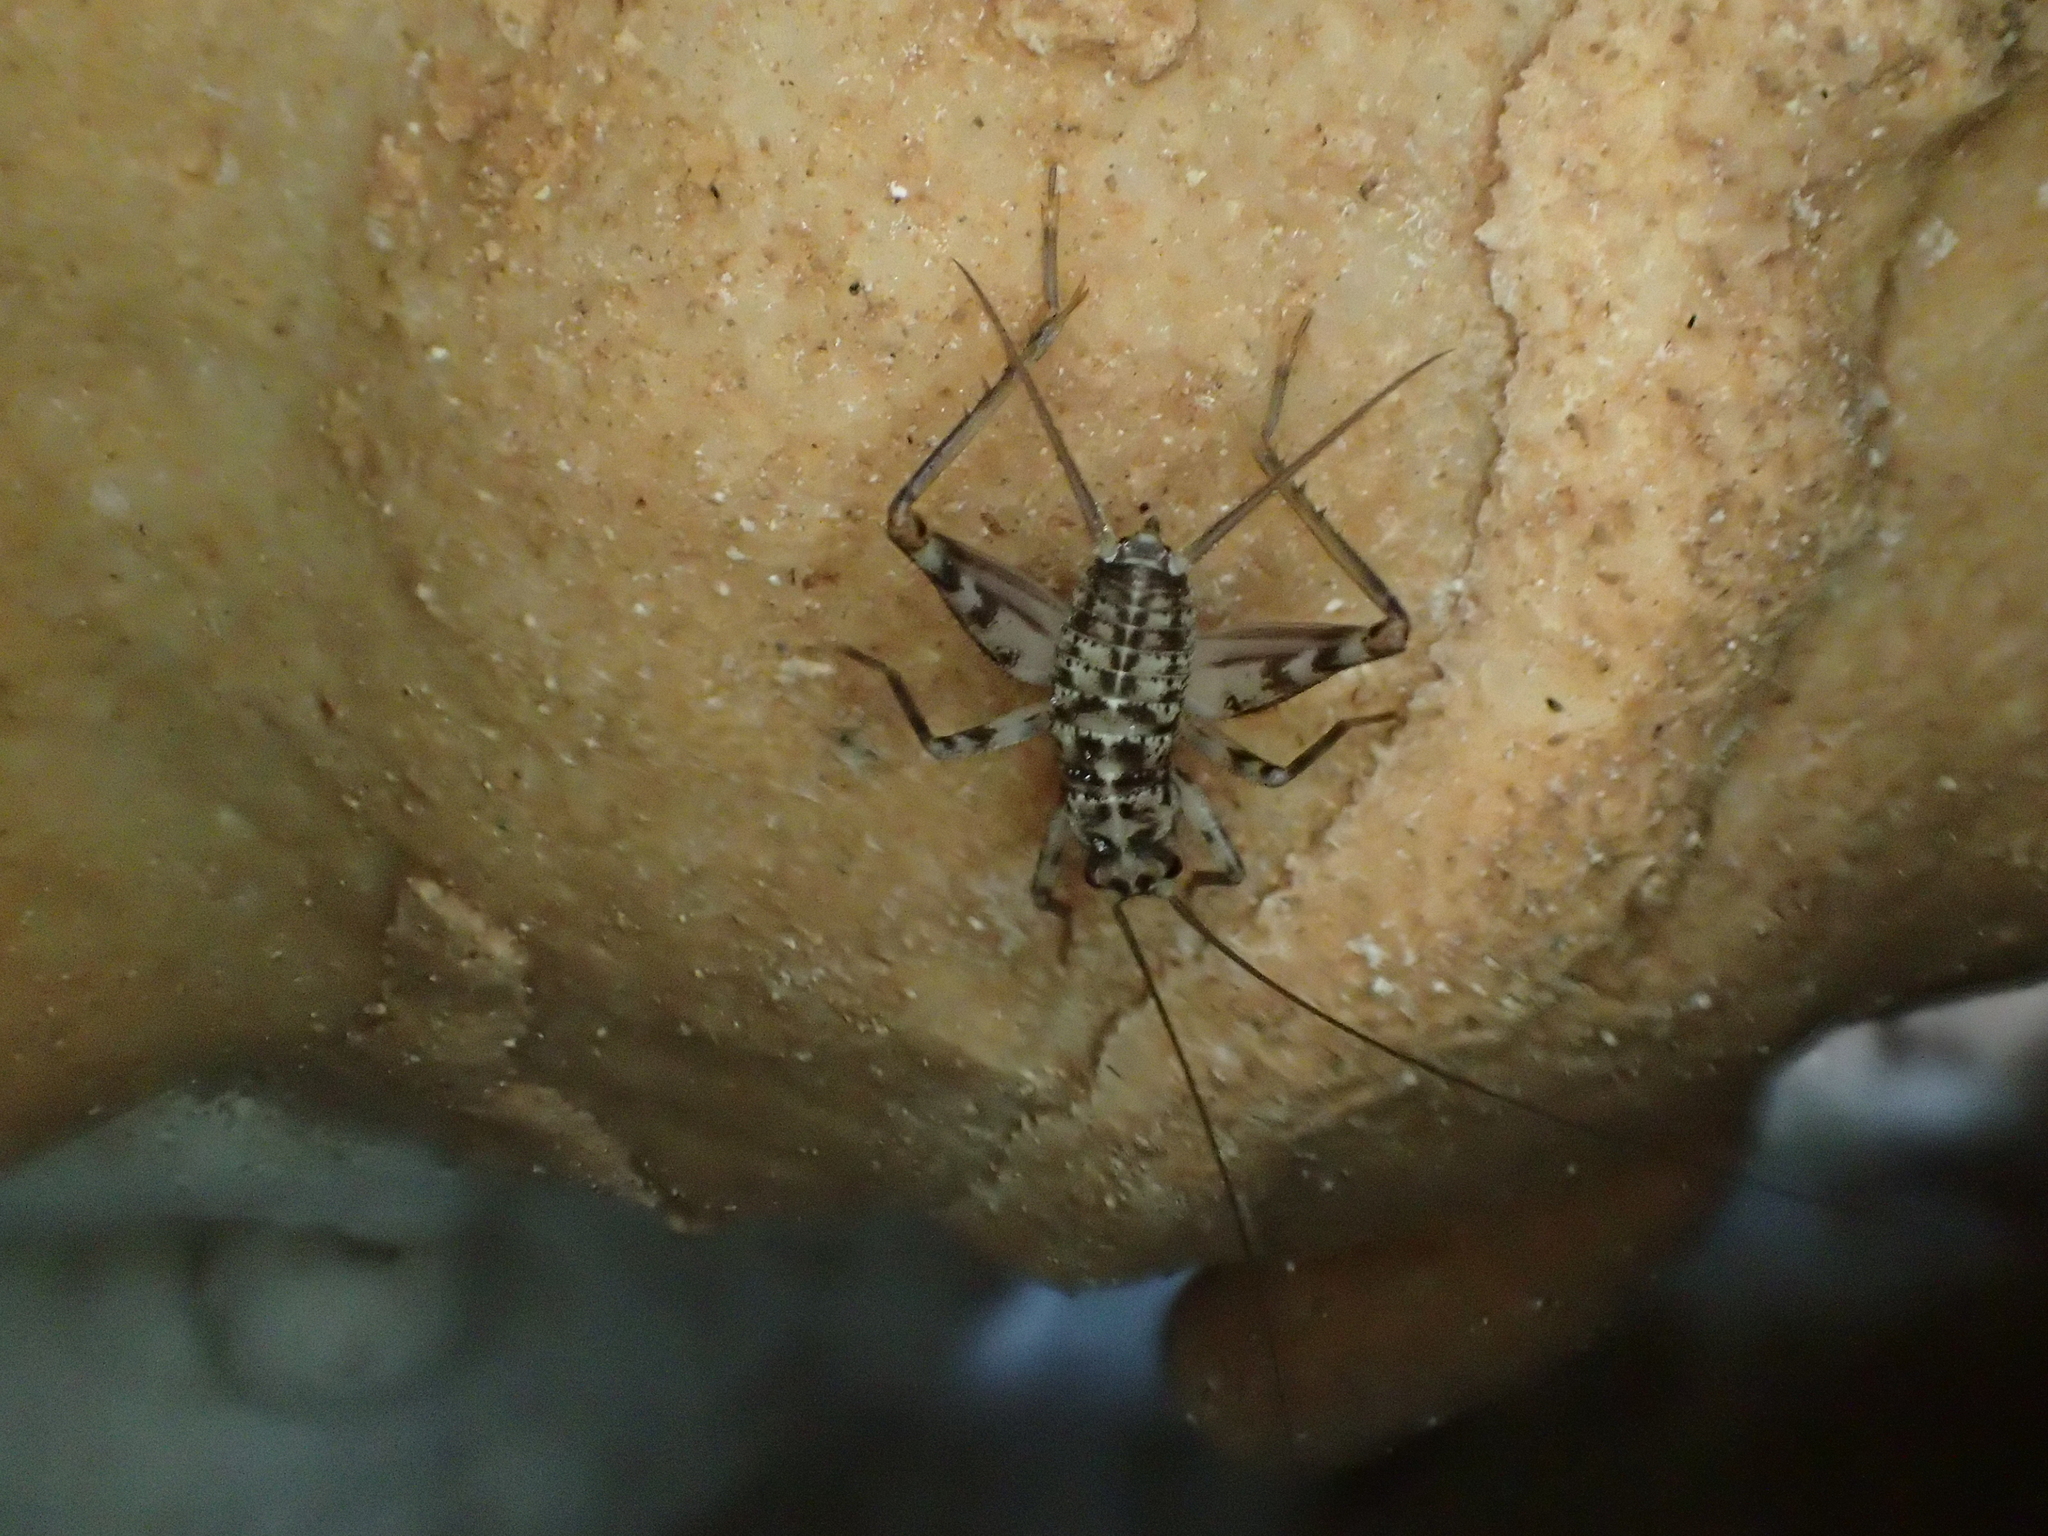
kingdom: Animalia
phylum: Arthropoda
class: Insecta
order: Orthoptera
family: Gryllidae
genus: Gryllomorpha
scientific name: Gryllomorpha dalmatina
